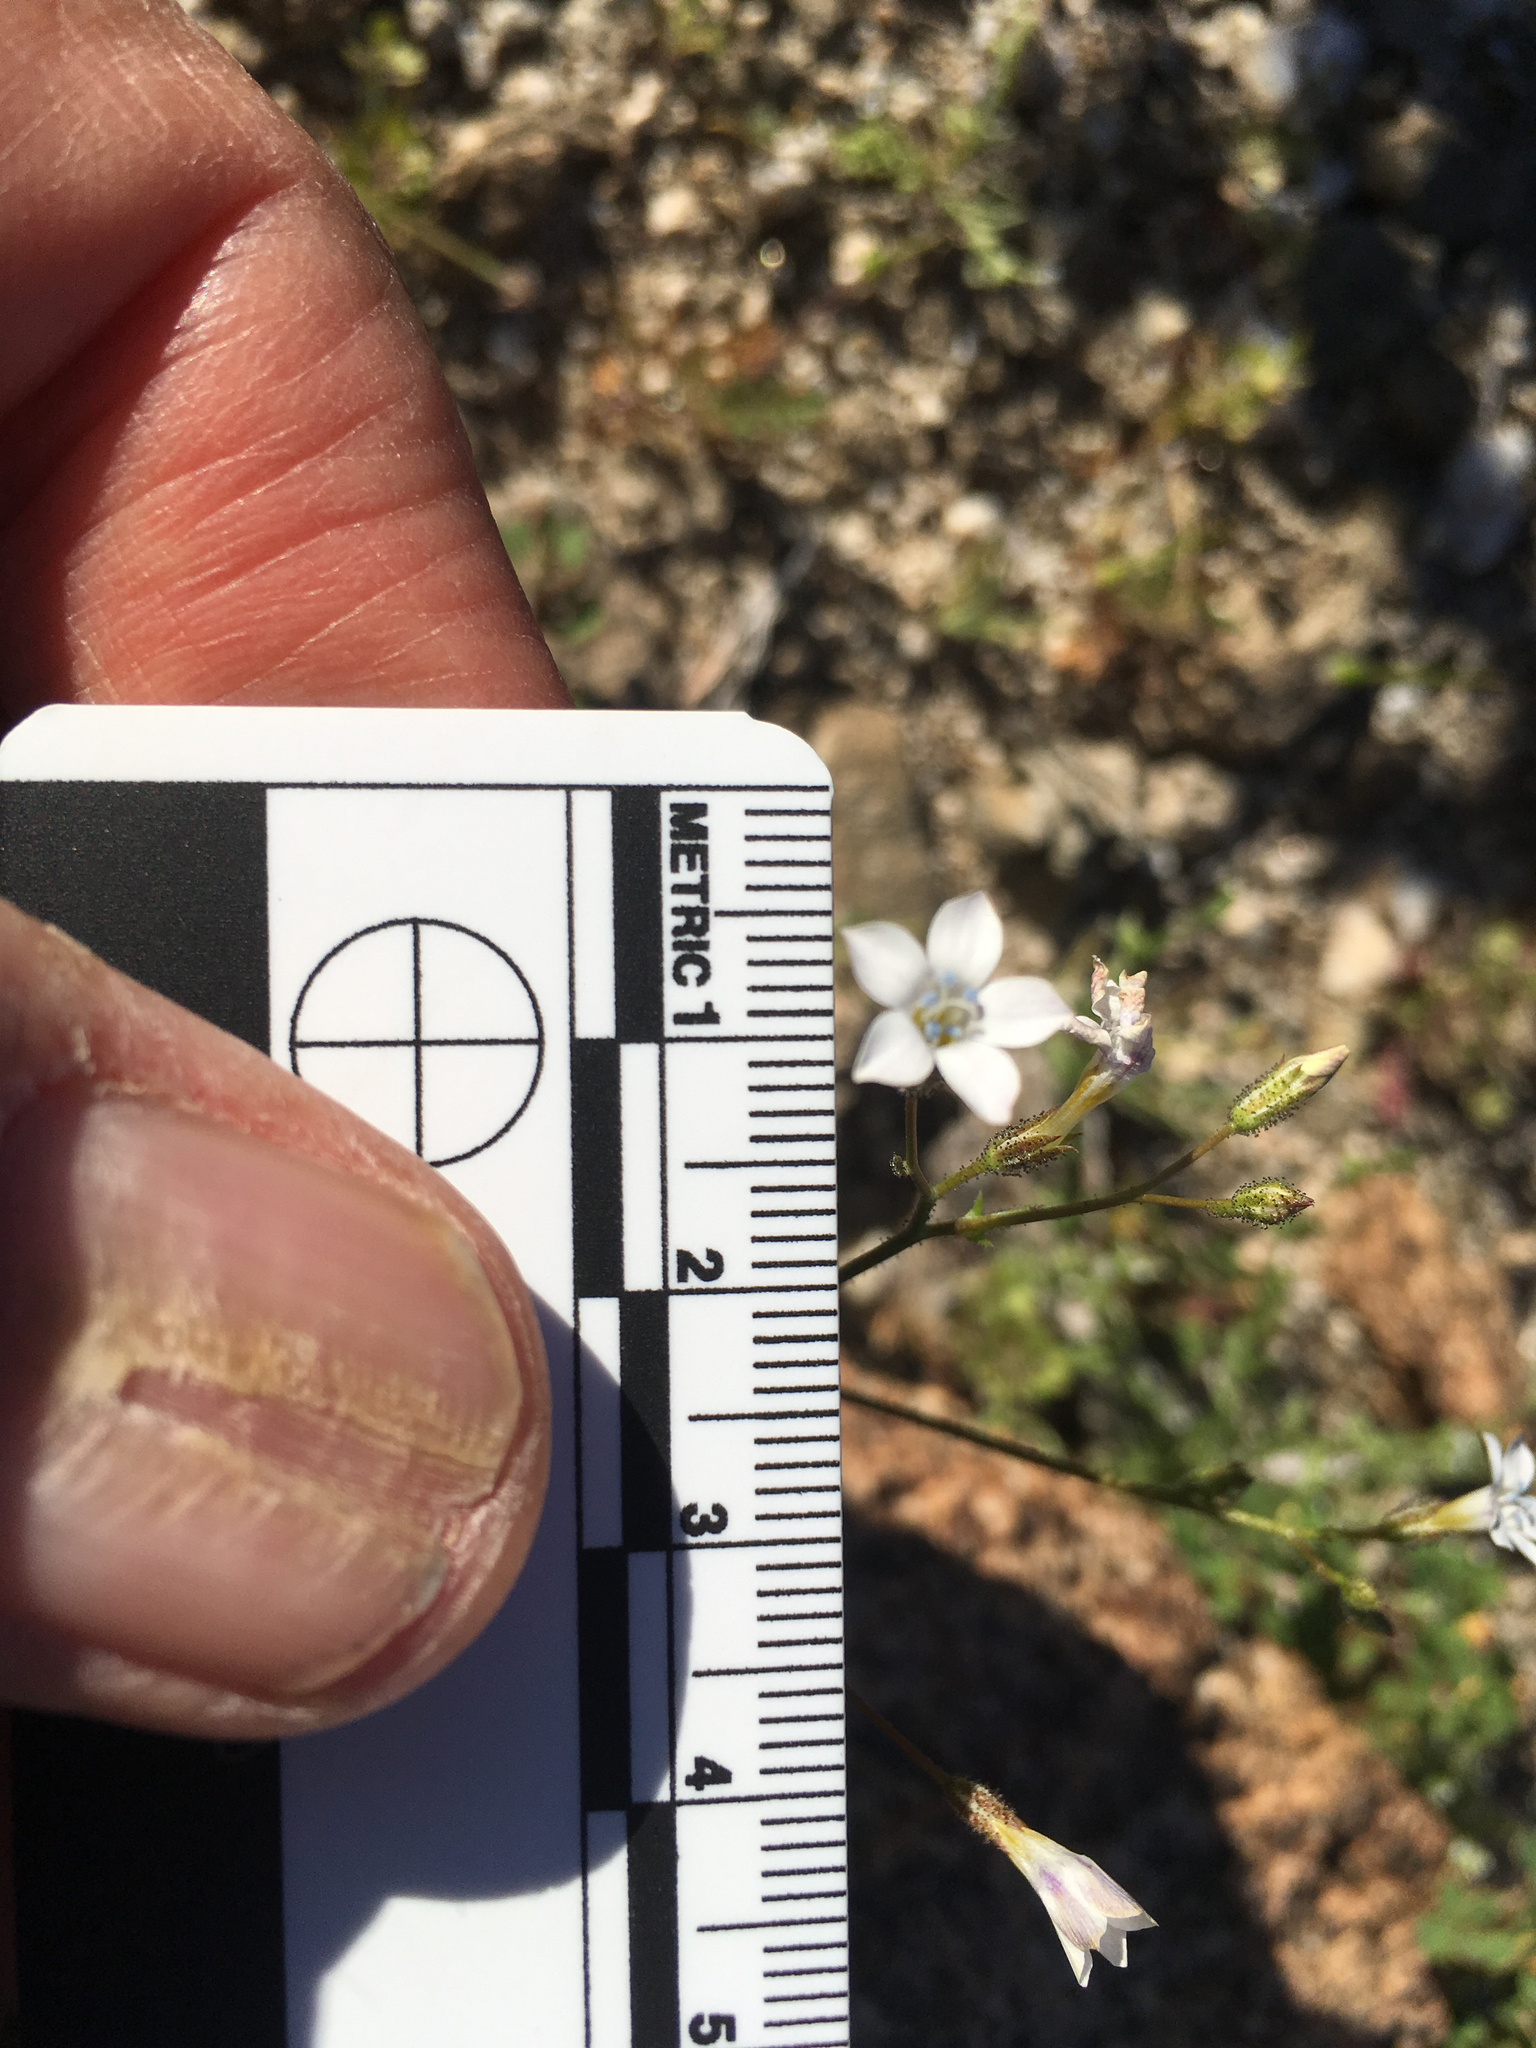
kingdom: Plantae
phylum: Tracheophyta
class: Magnoliopsida
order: Ericales
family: Polemoniaceae
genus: Gilia
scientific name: Gilia stellata
